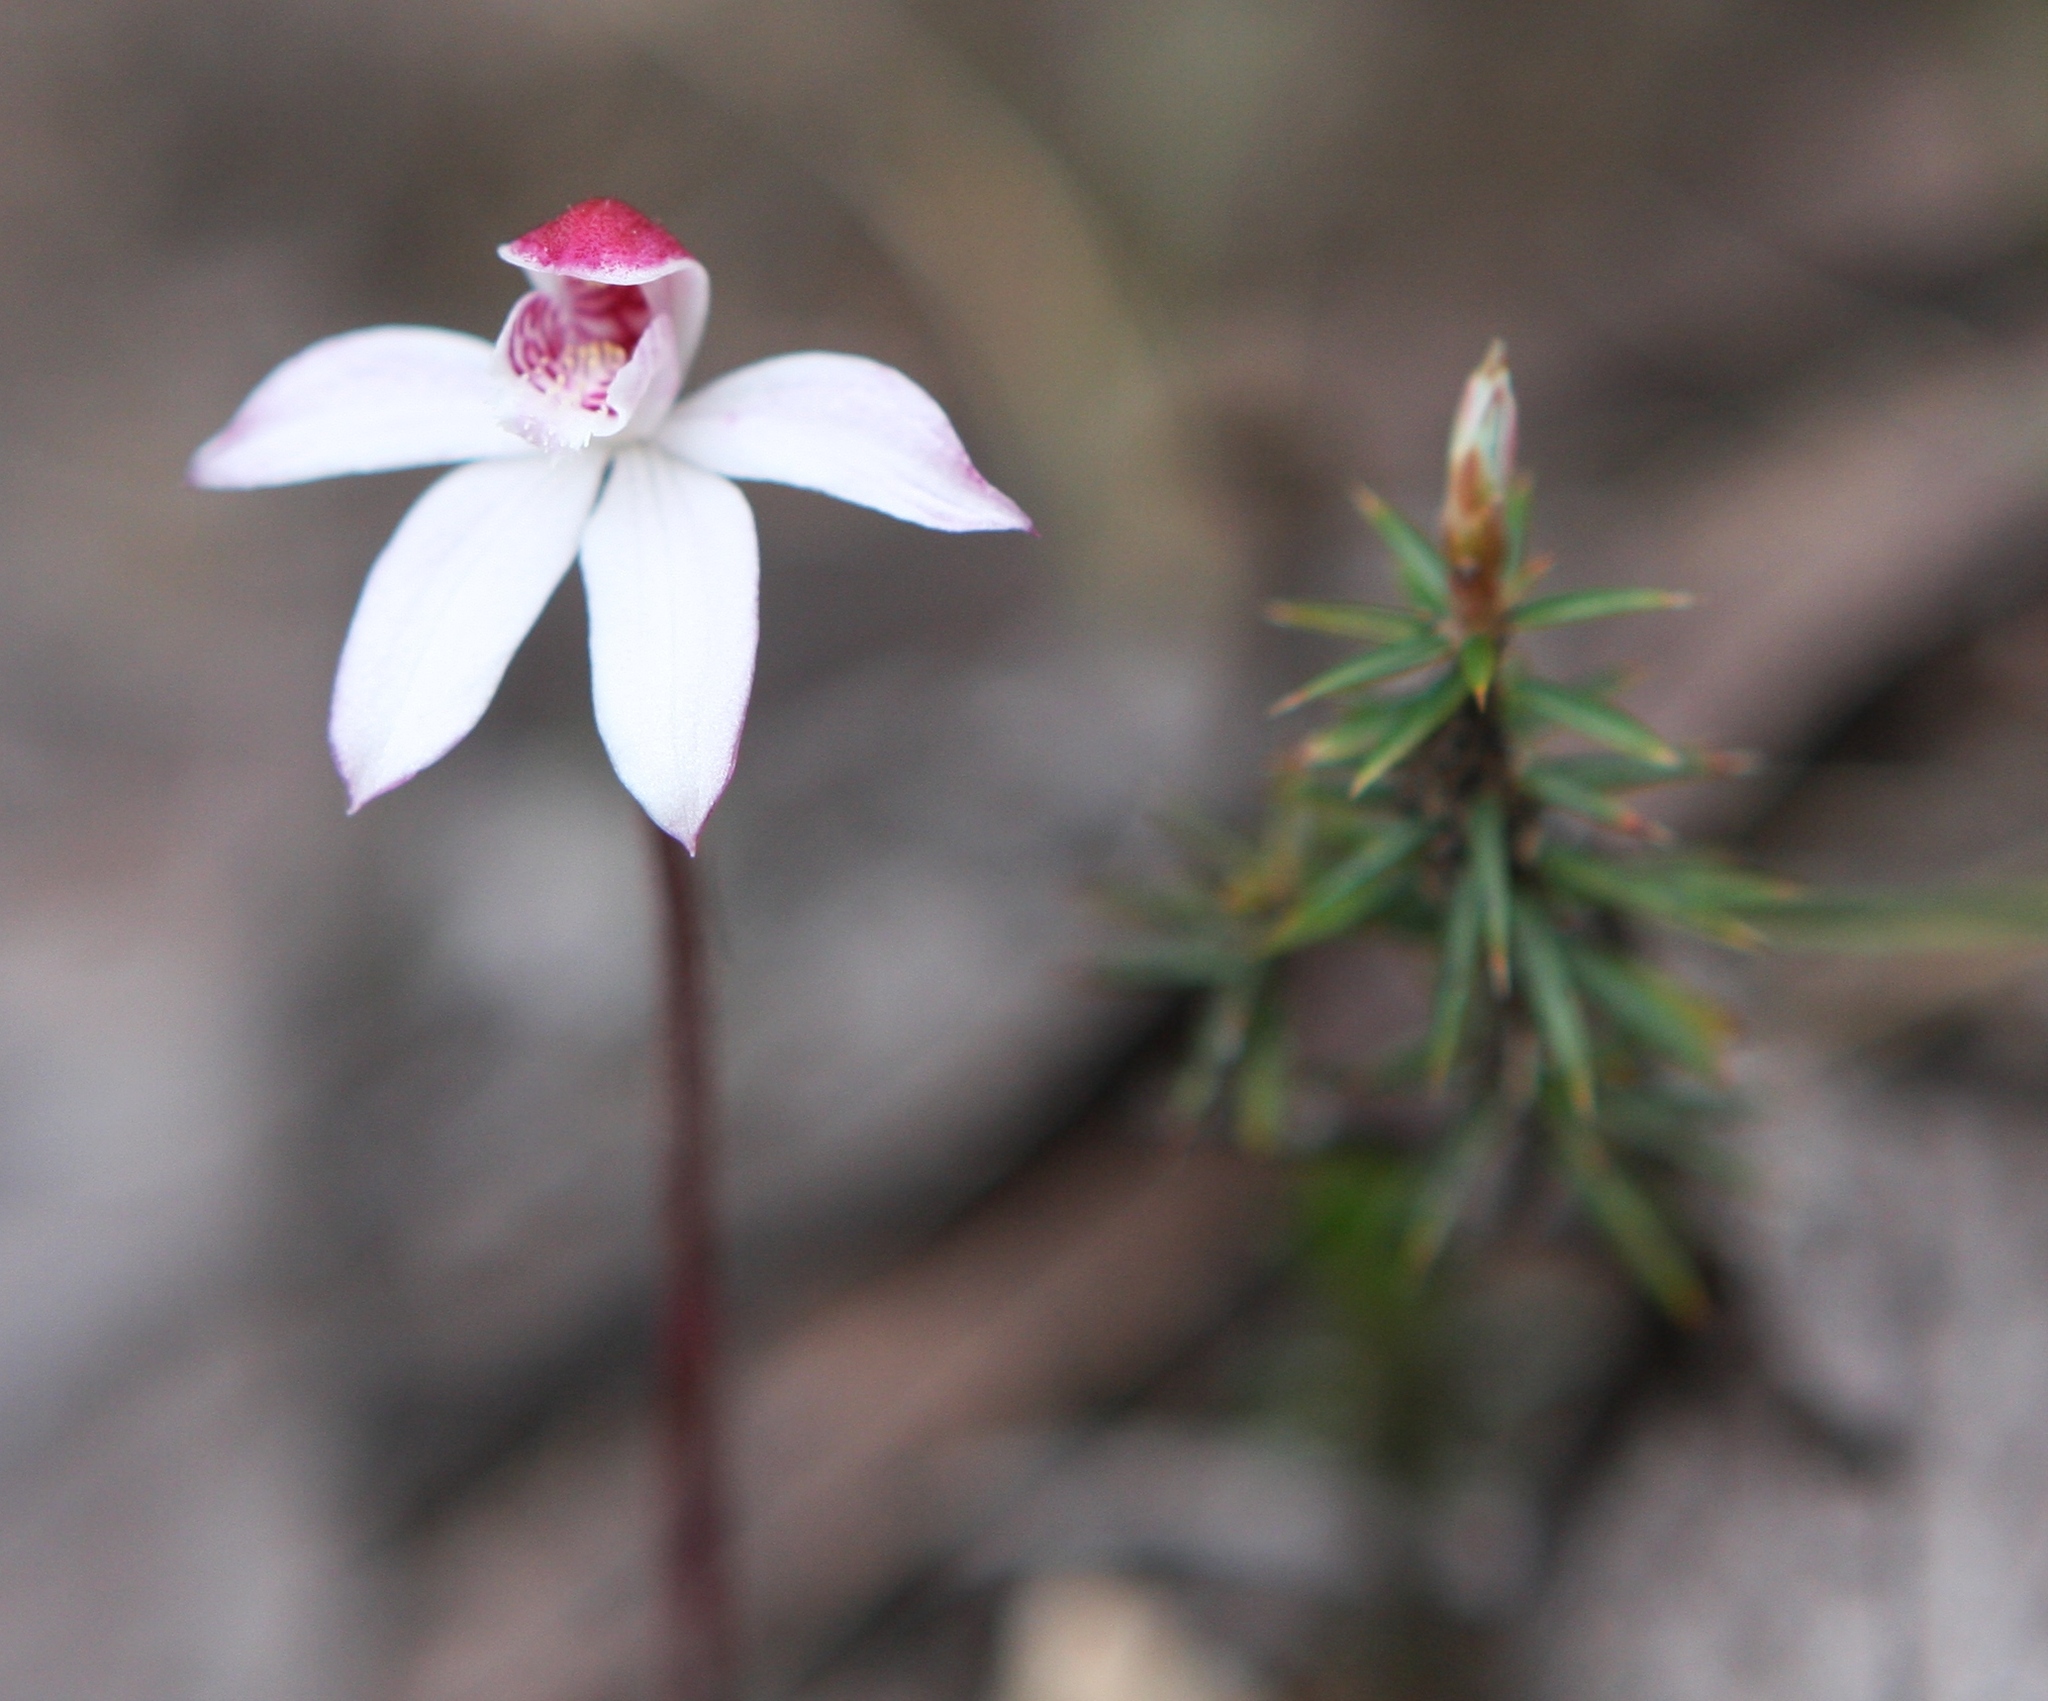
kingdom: Plantae
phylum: Tracheophyta
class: Liliopsida
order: Asparagales
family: Orchidaceae
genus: Caladenia
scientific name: Caladenia alpina
